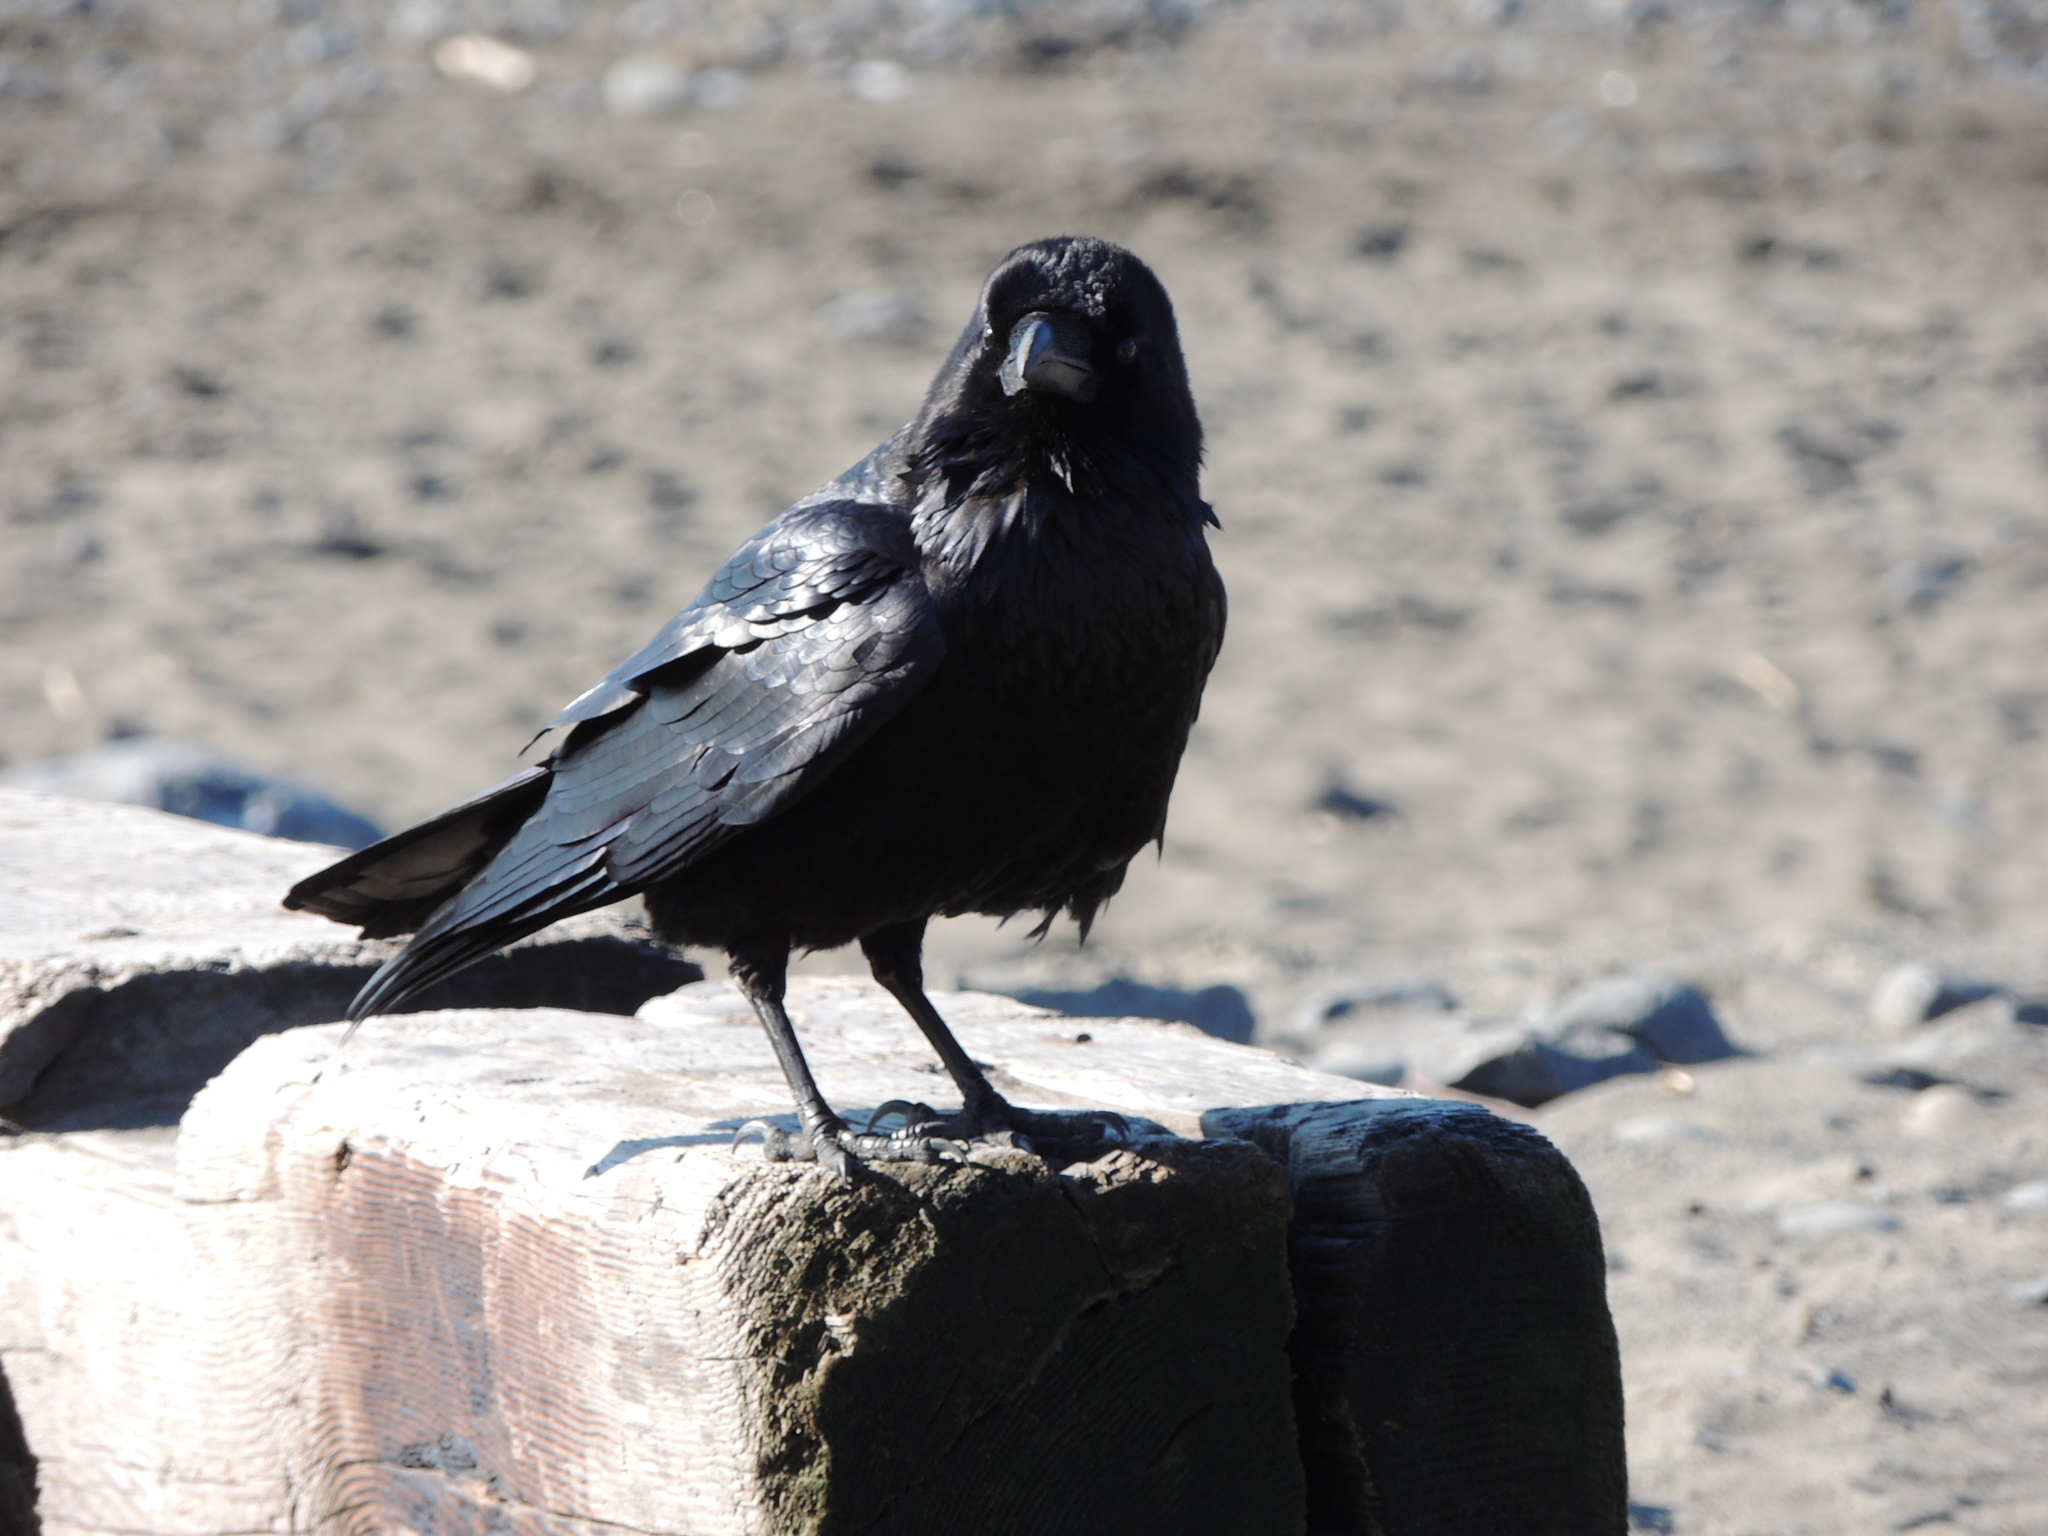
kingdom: Animalia
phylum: Chordata
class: Aves
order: Passeriformes
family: Corvidae
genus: Corvus
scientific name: Corvus corax
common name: Common raven
